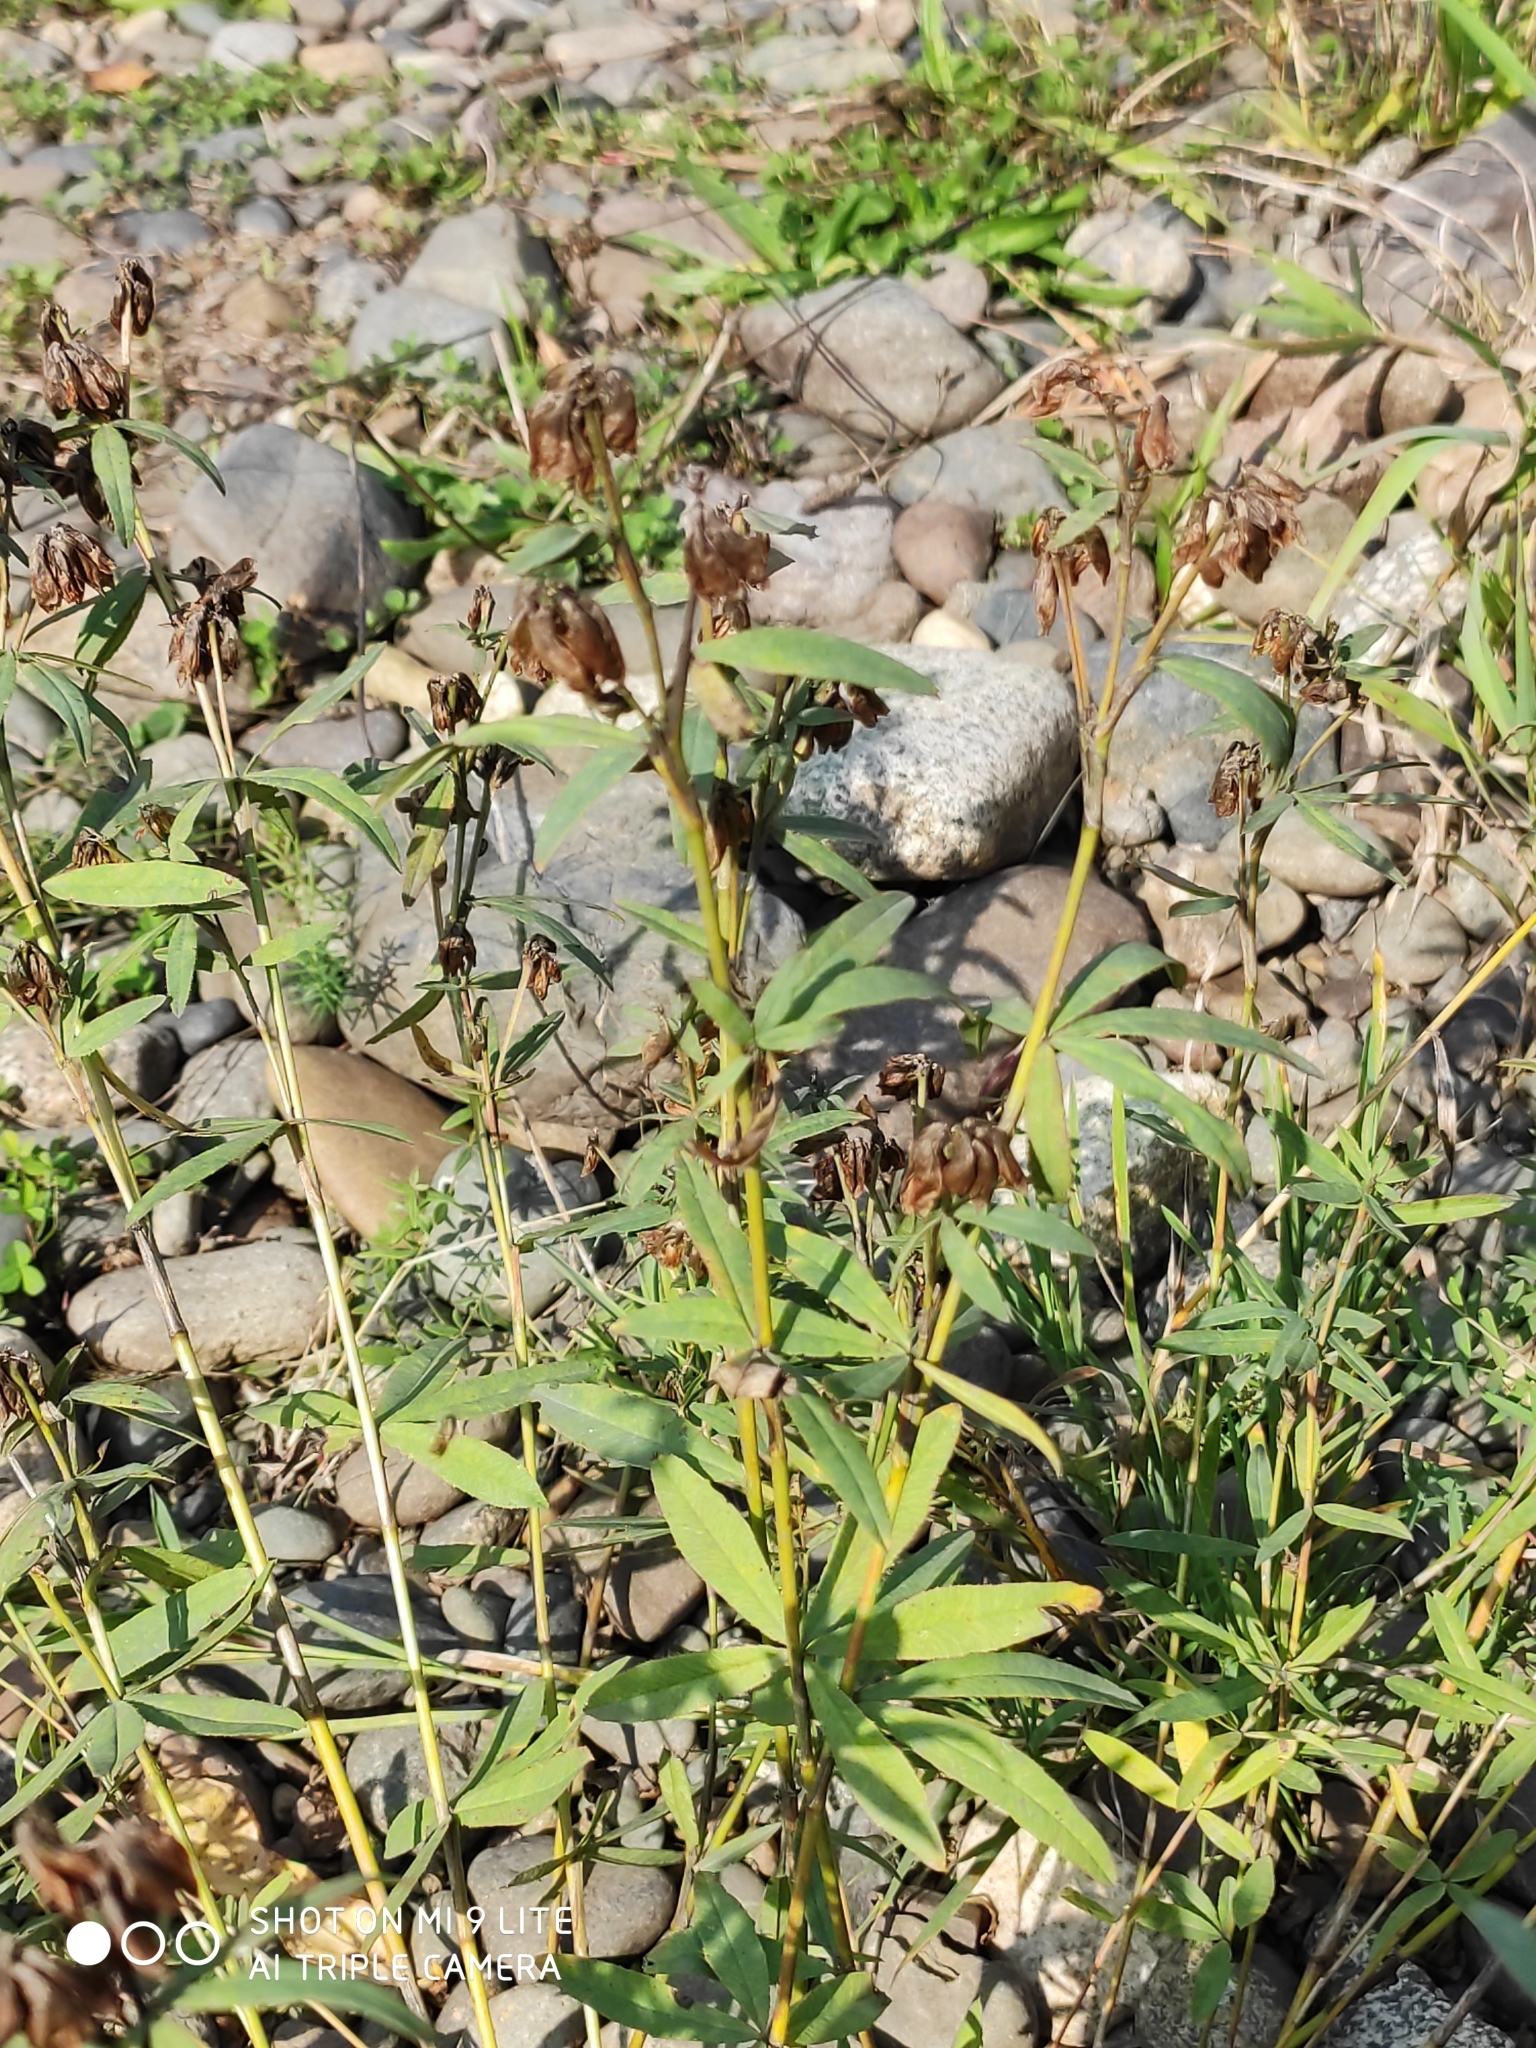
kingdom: Plantae
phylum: Tracheophyta
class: Magnoliopsida
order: Fabales
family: Fabaceae
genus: Trifolium
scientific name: Trifolium lupinaster
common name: Lupine clover
